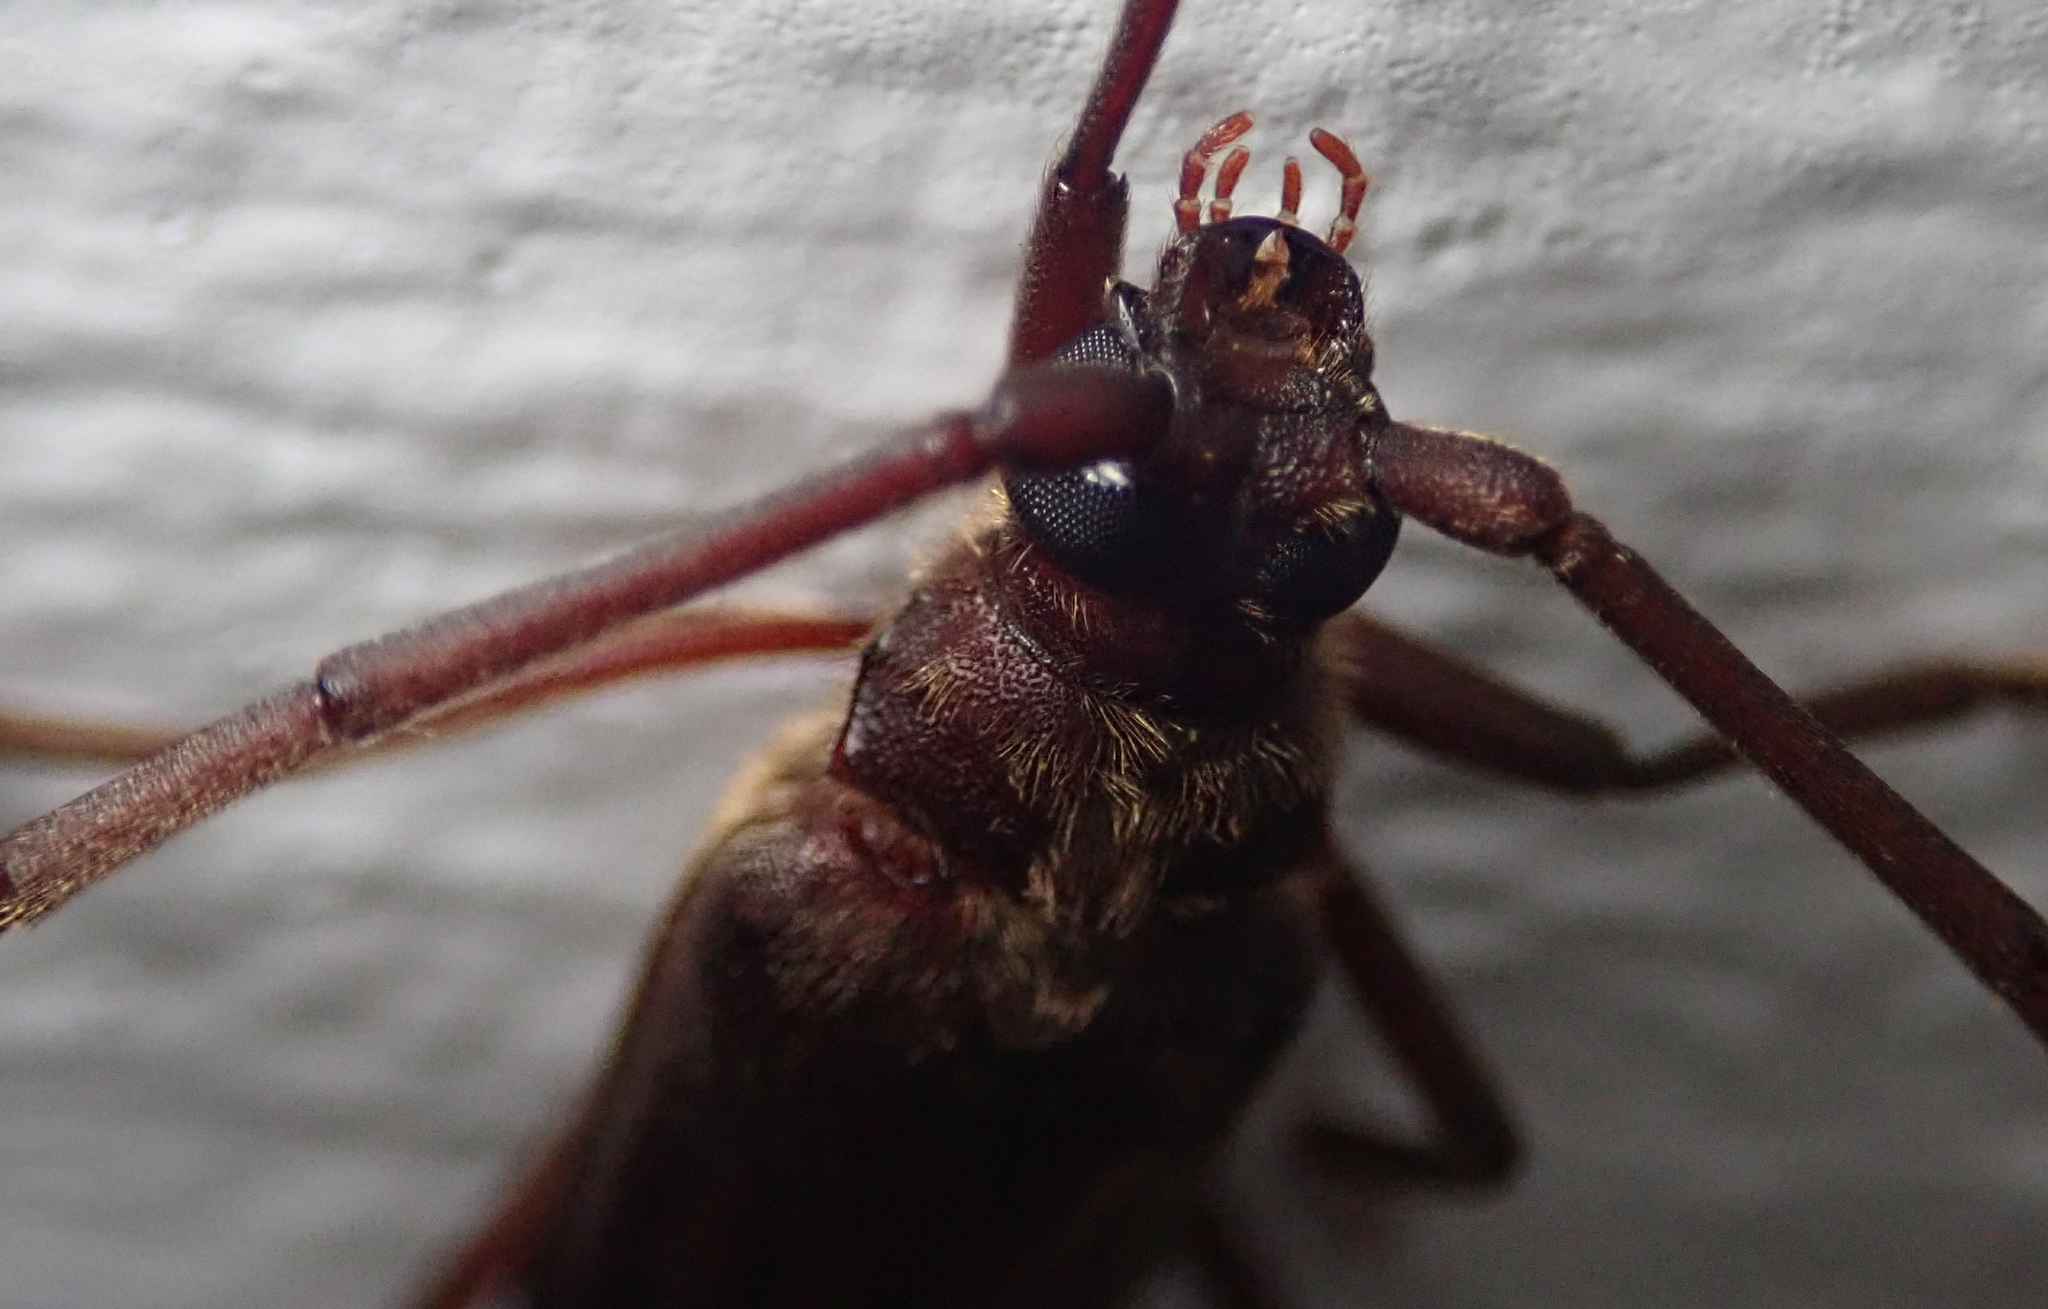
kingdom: Animalia
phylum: Arthropoda
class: Insecta
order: Coleoptera
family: Cerambycidae
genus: Oceanomegopis
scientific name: Oceanomegopis caledonica
